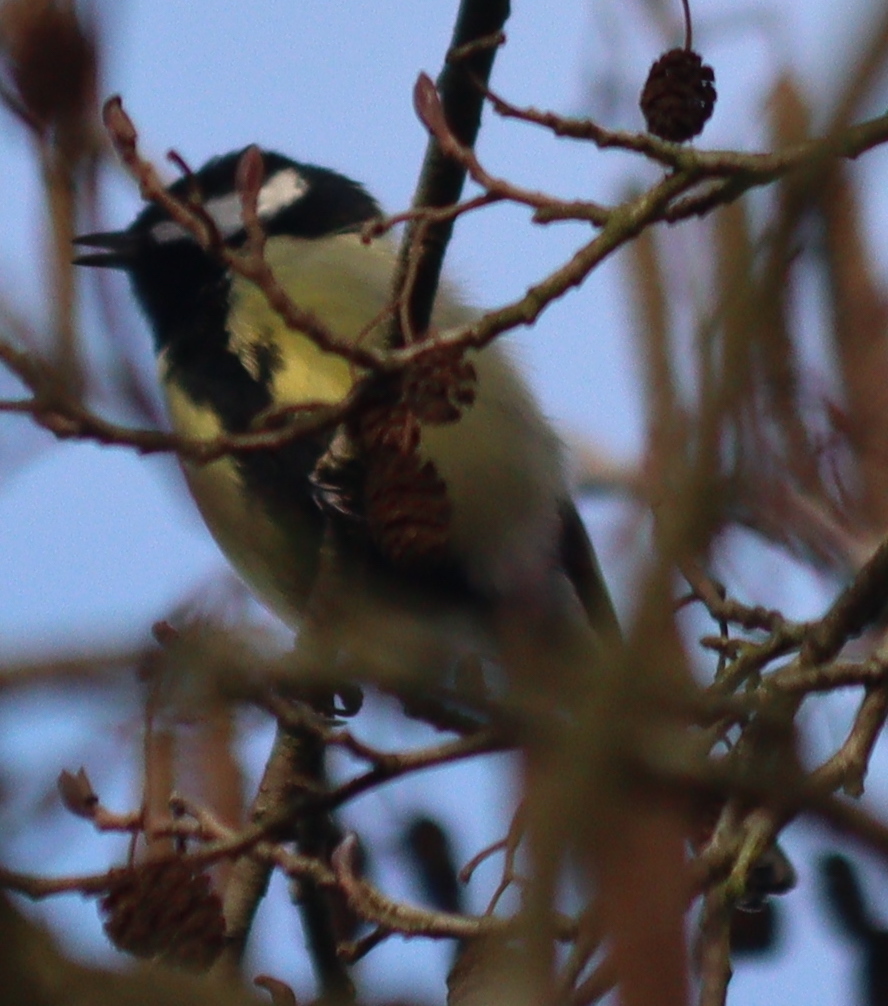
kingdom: Animalia
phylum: Chordata
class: Aves
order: Passeriformes
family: Paridae
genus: Parus
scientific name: Parus major
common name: Great tit
